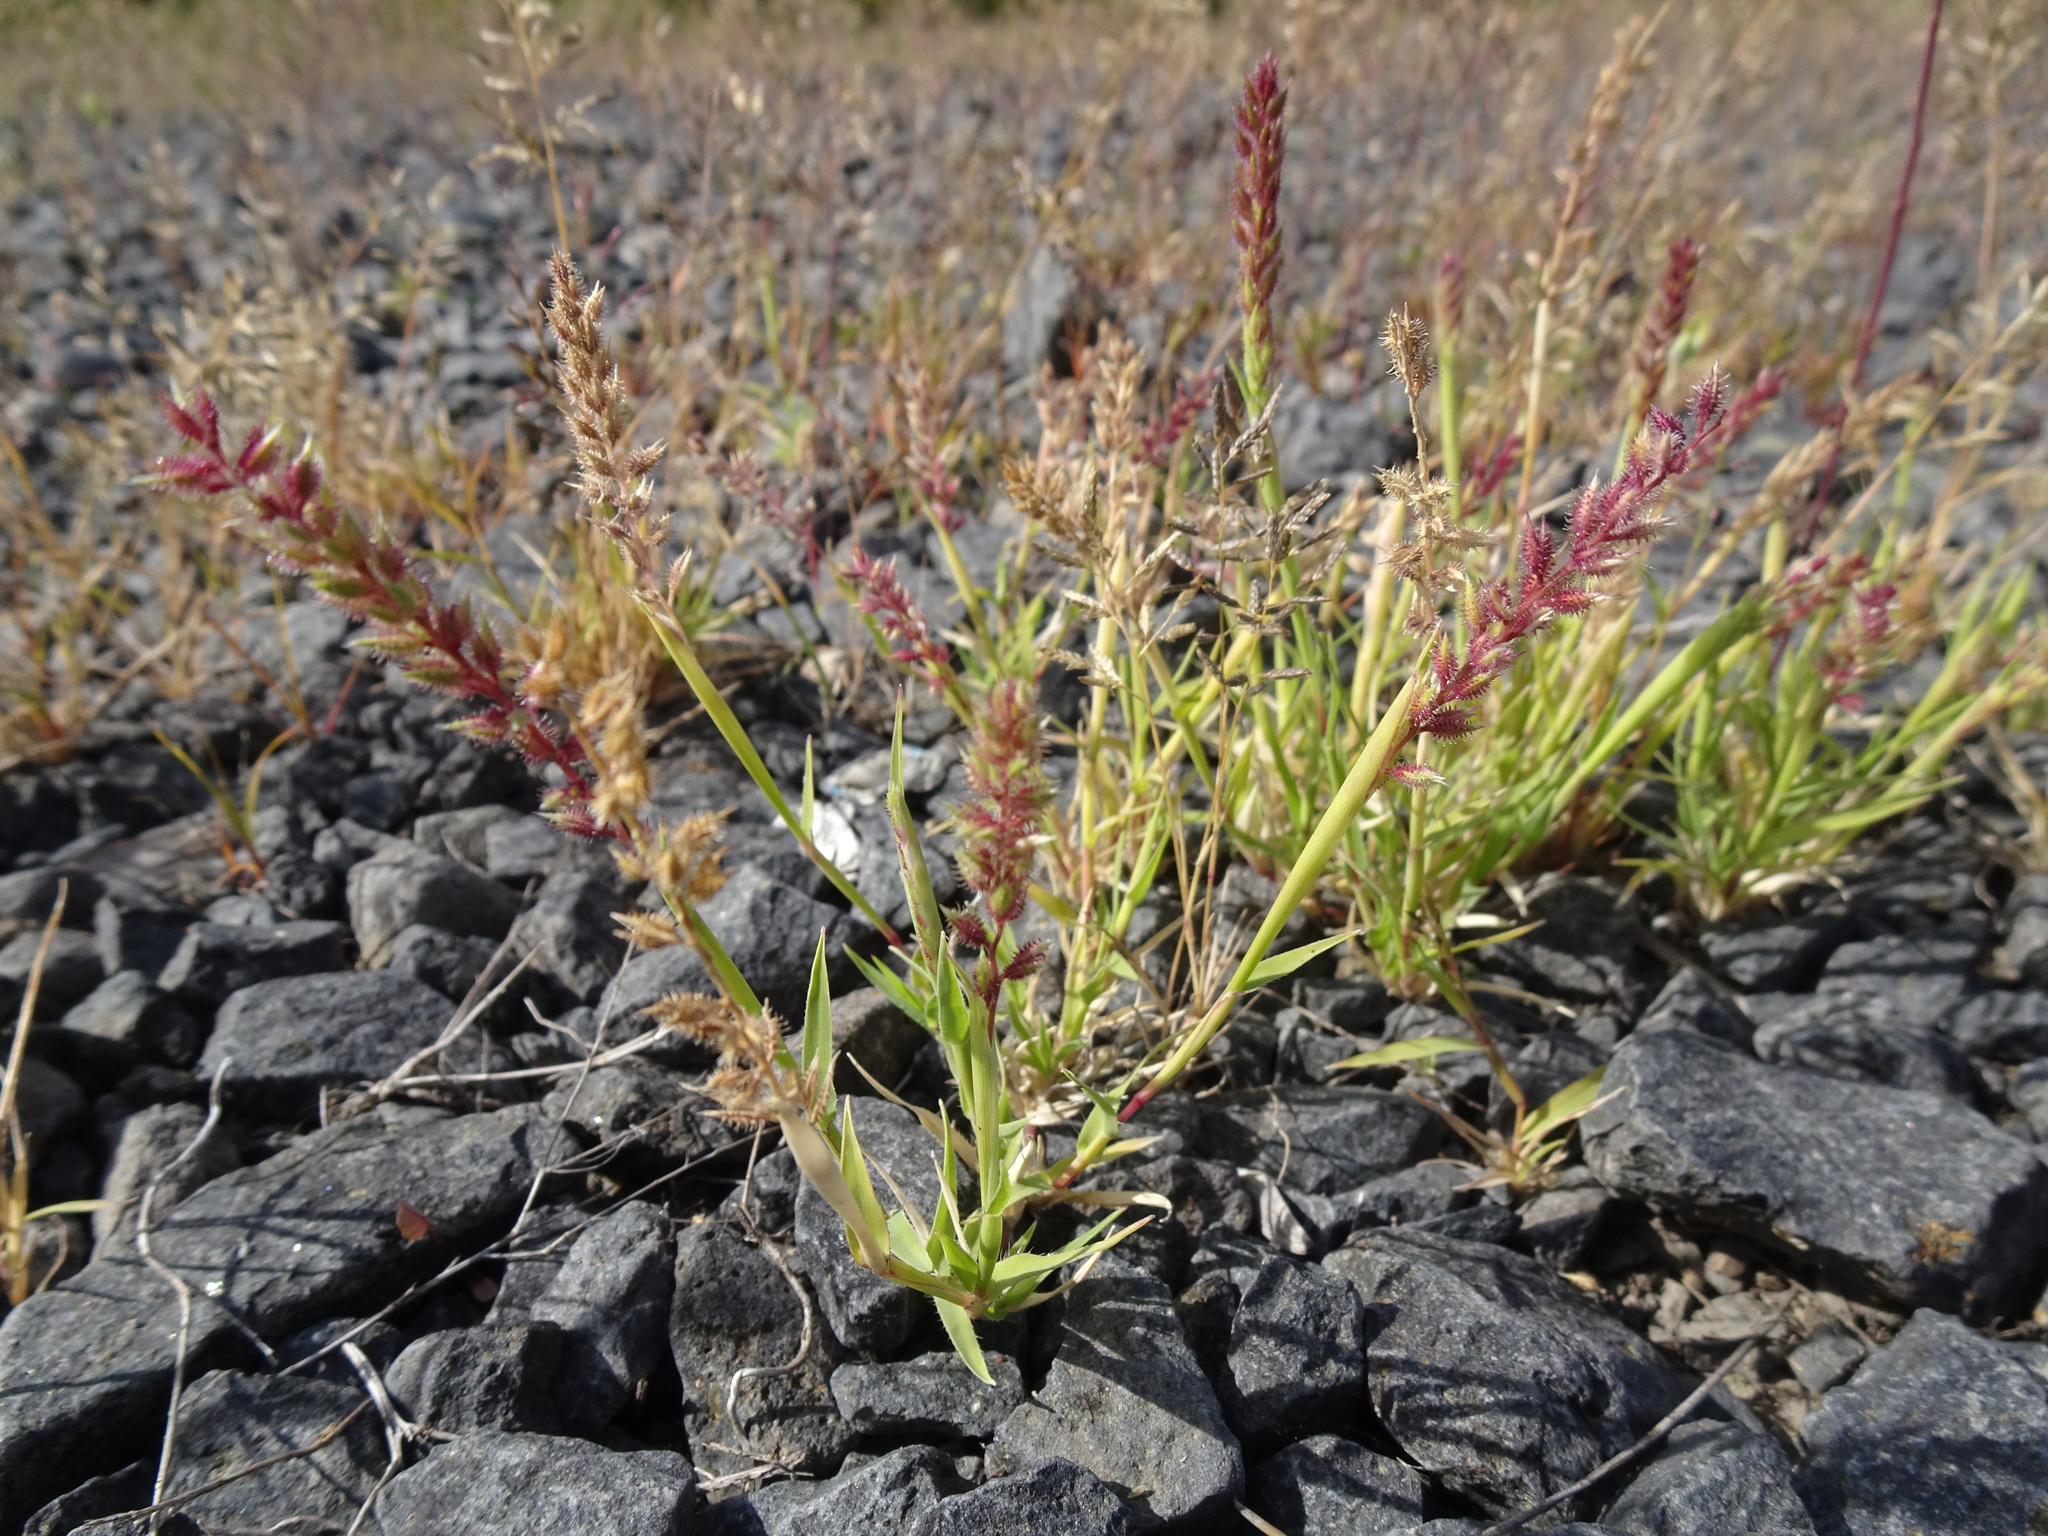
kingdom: Plantae
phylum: Tracheophyta
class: Liliopsida
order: Poales
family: Poaceae
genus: Tragus
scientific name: Tragus racemosus
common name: European bur-grass
